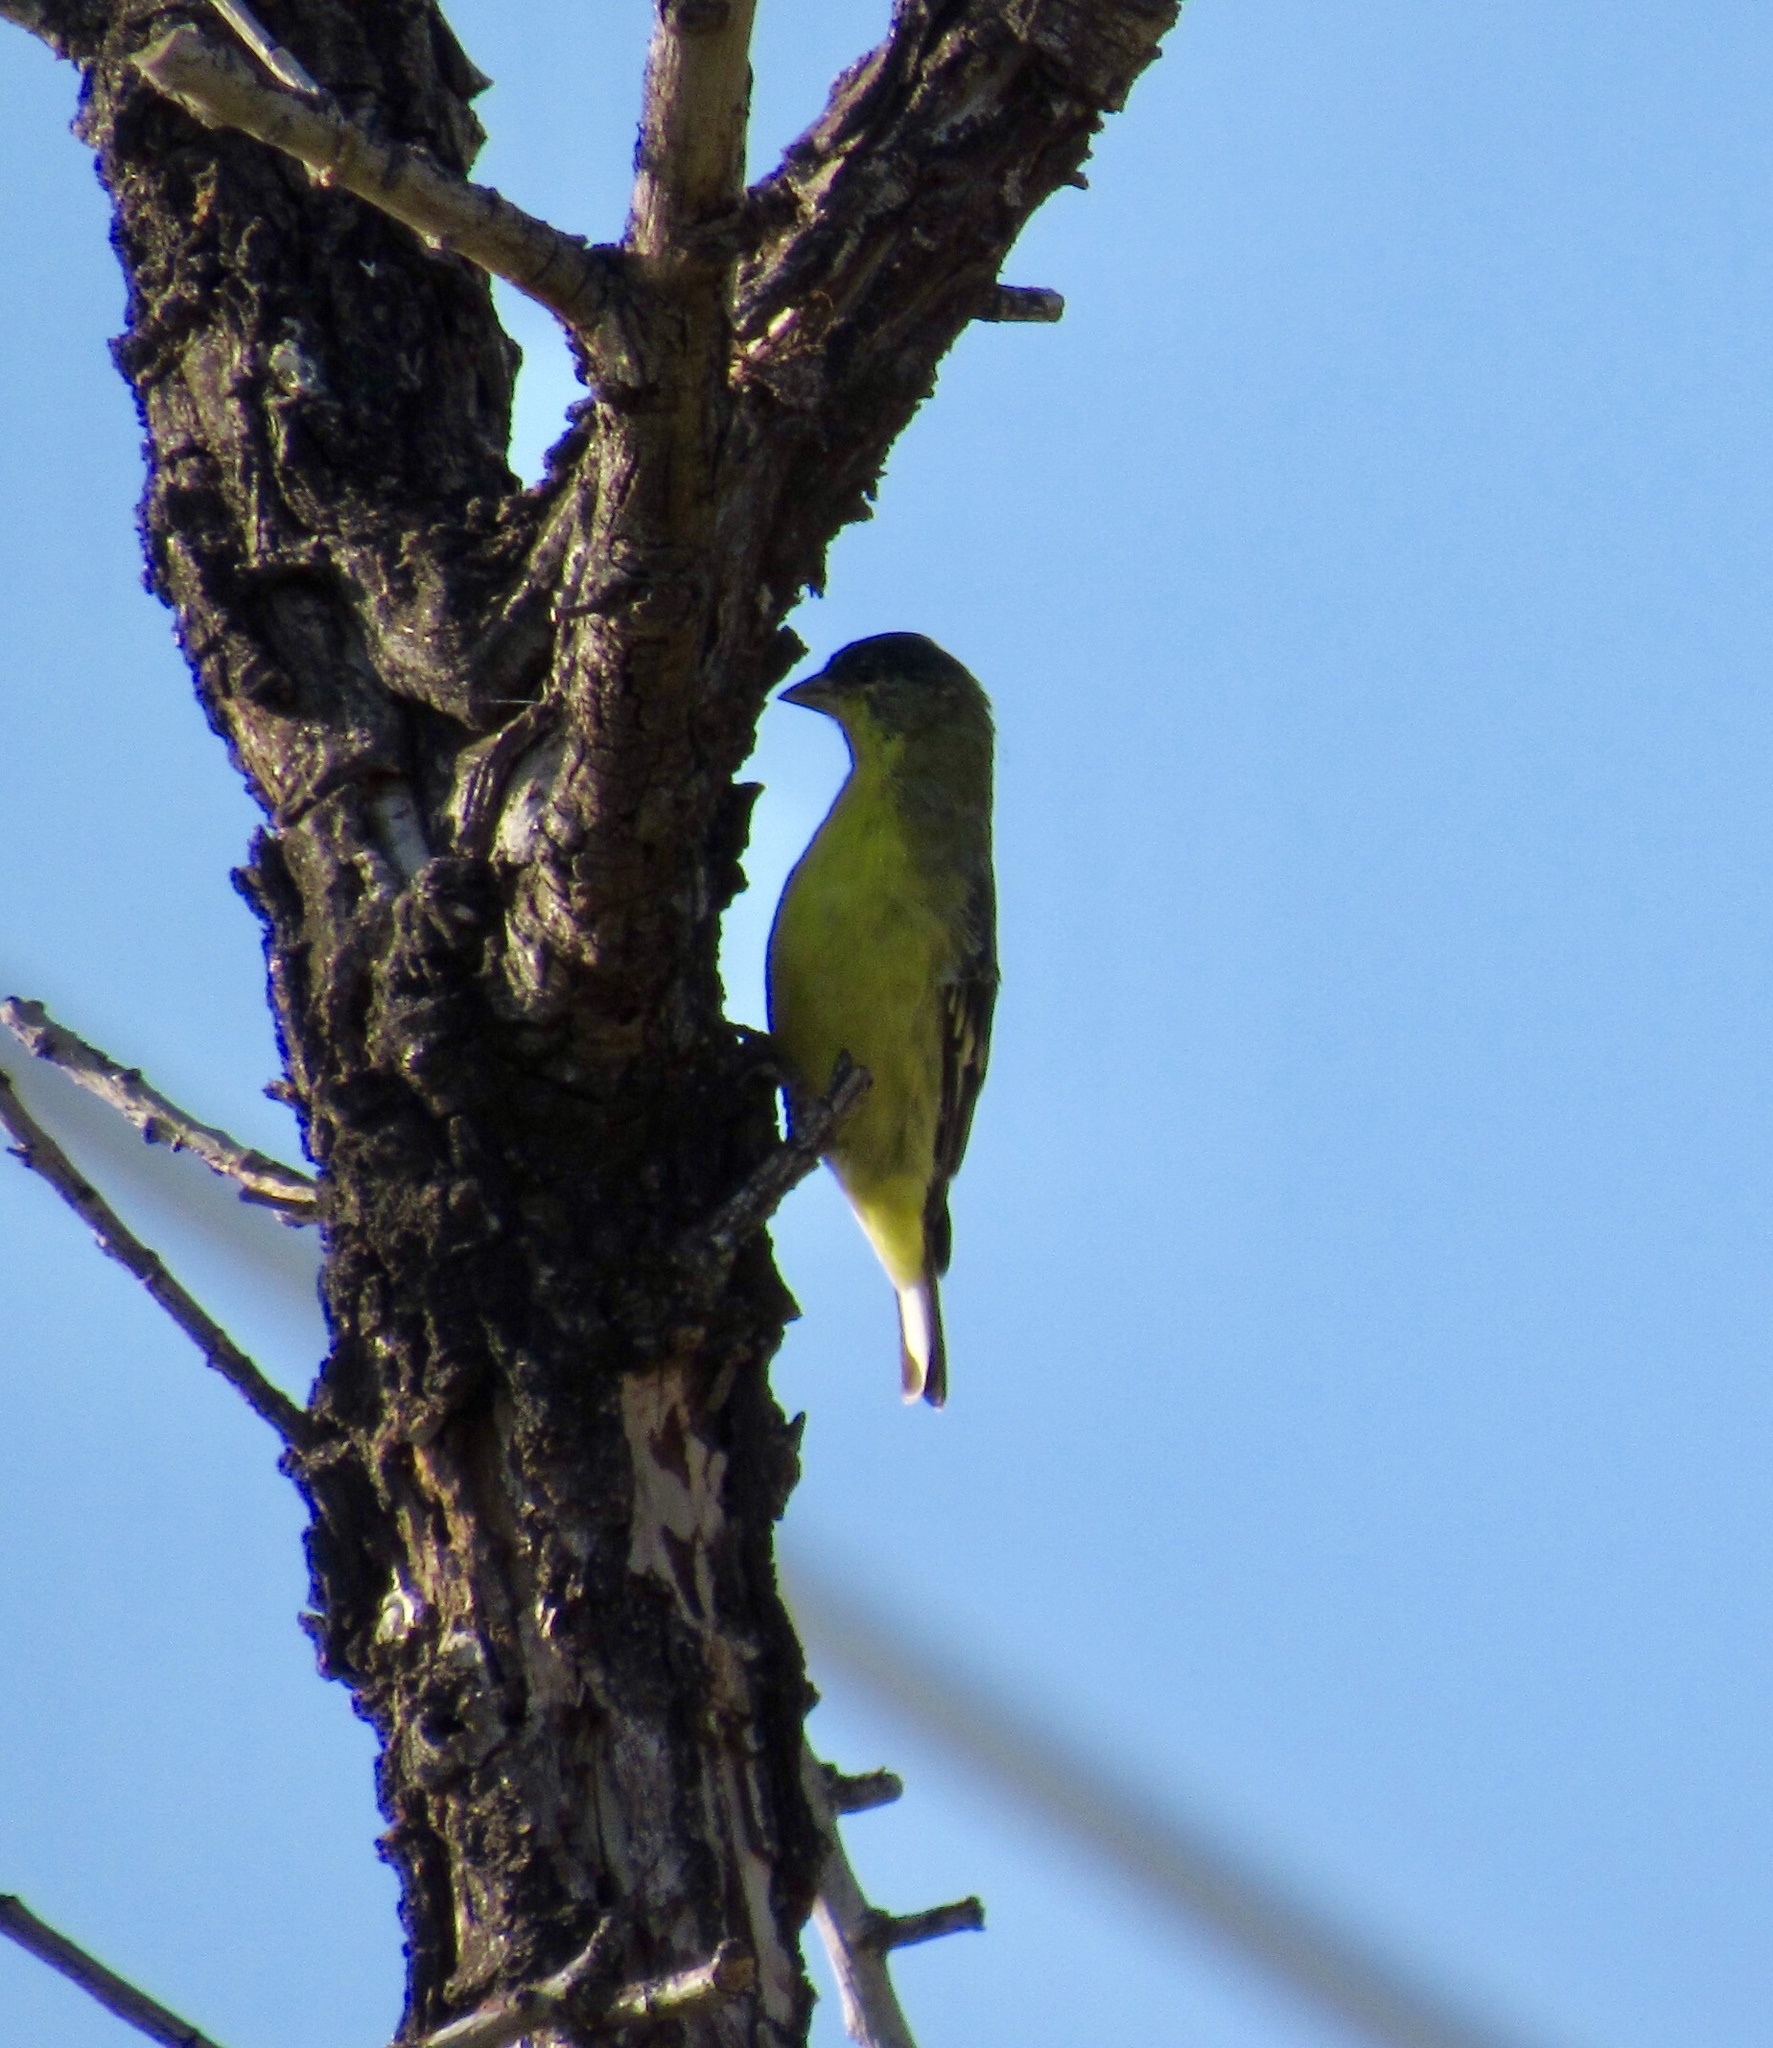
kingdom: Animalia
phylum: Chordata
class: Aves
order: Passeriformes
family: Fringillidae
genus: Spinus
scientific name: Spinus psaltria
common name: Lesser goldfinch
